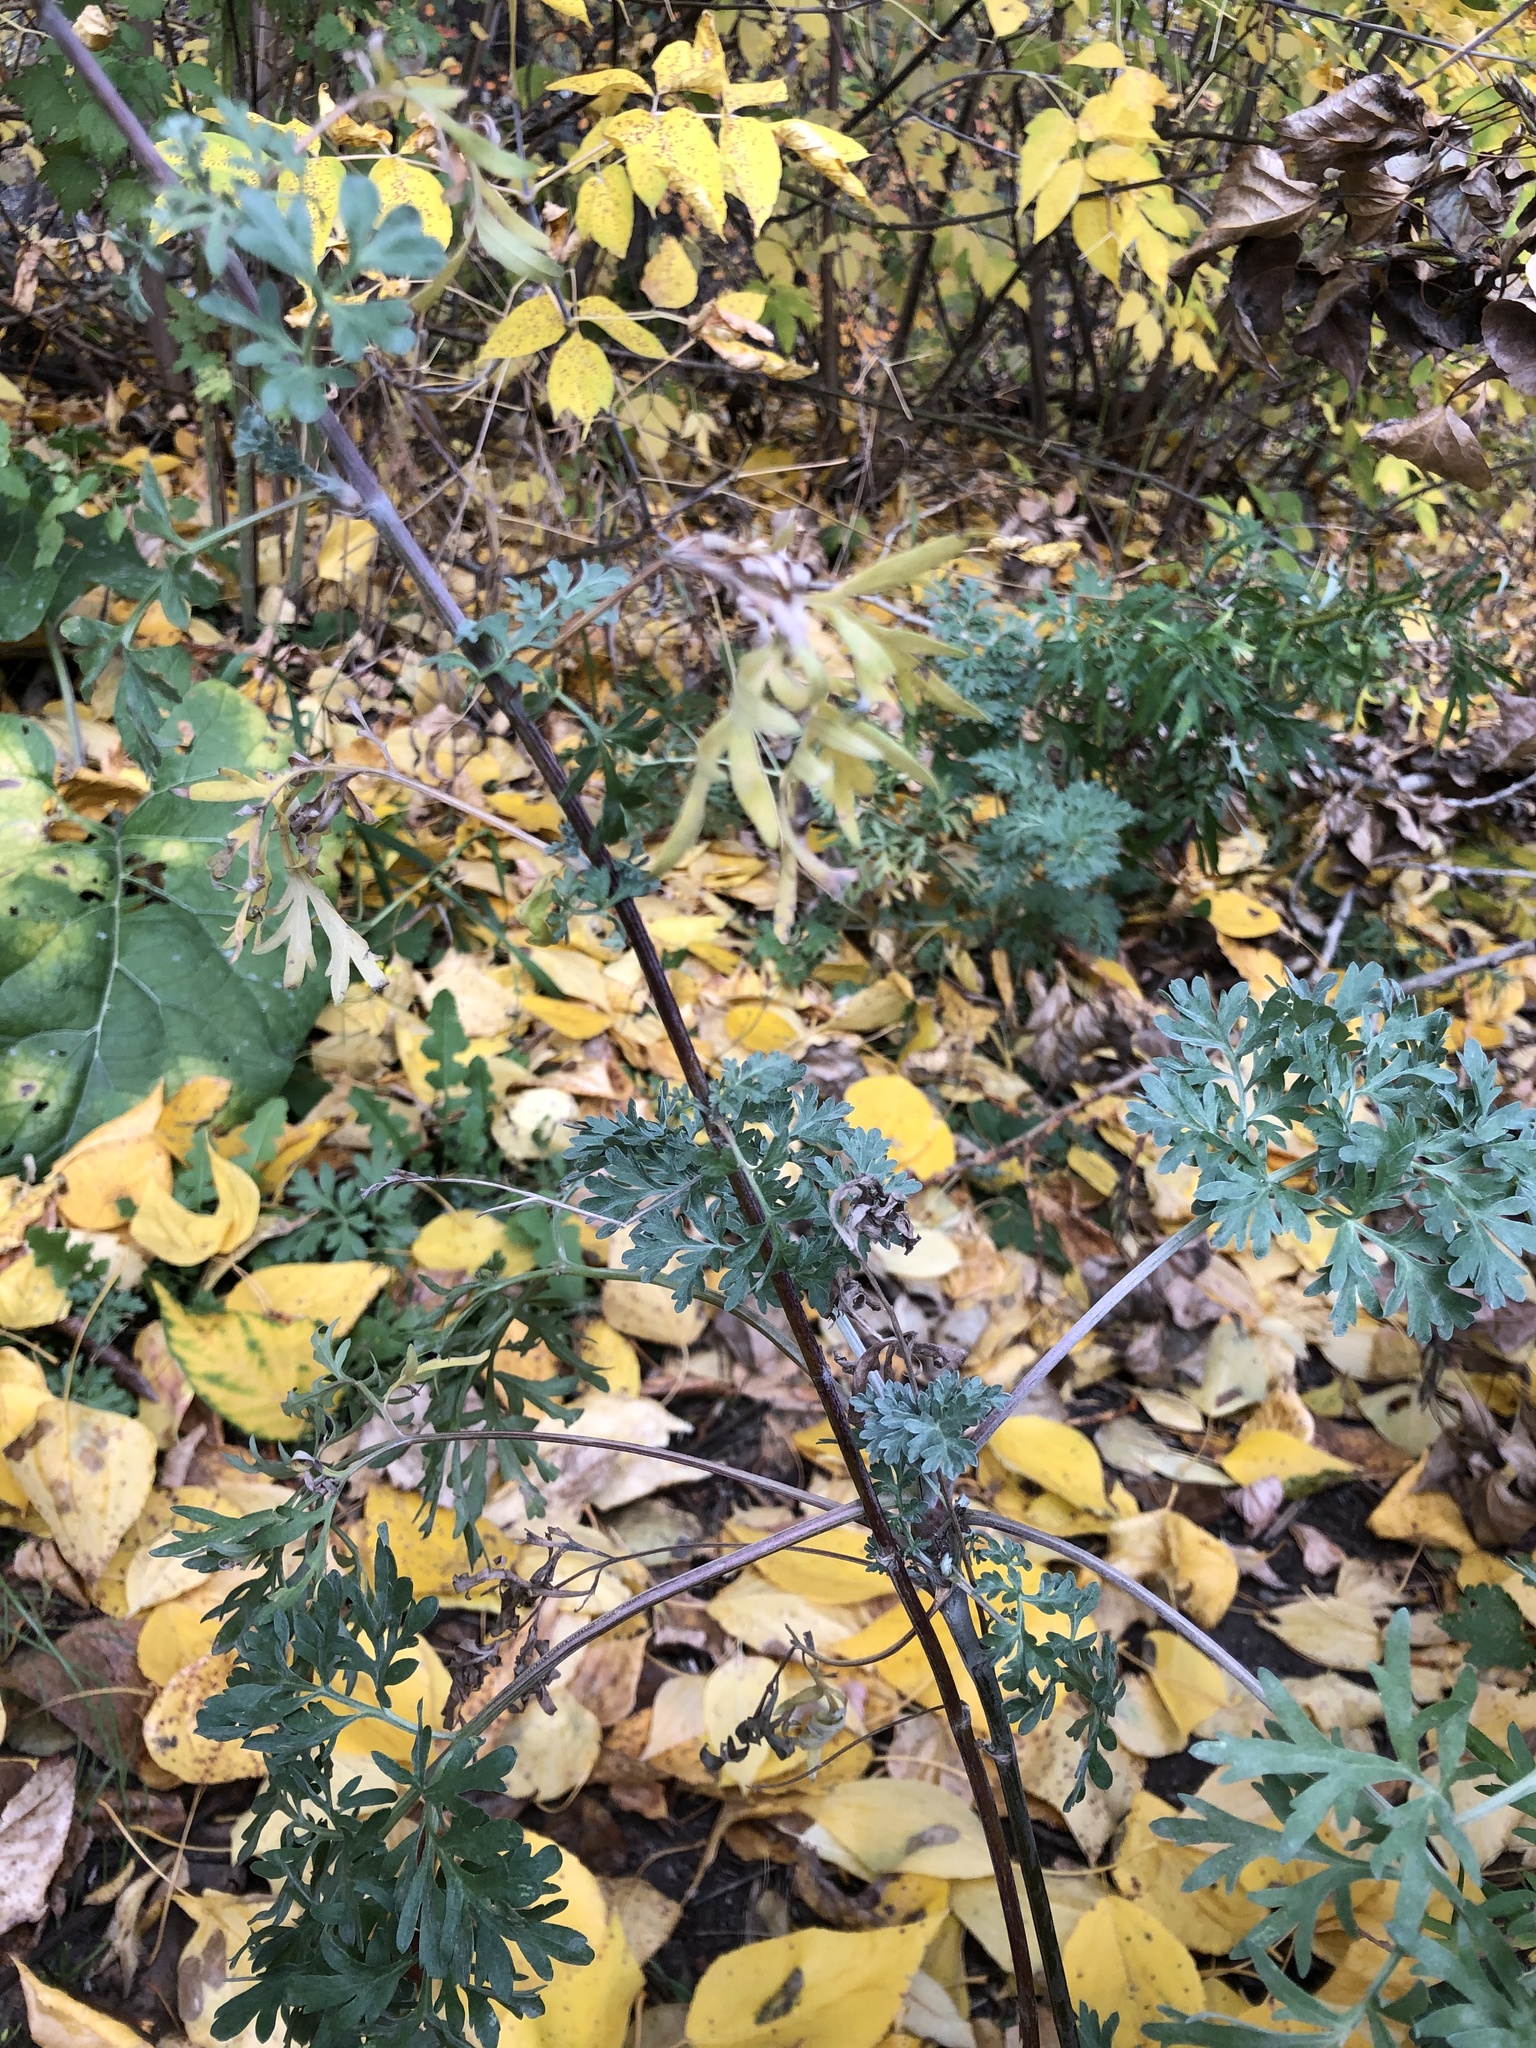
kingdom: Plantae
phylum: Tracheophyta
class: Magnoliopsida
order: Asterales
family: Asteraceae
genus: Artemisia
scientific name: Artemisia absinthium
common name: Wormwood
